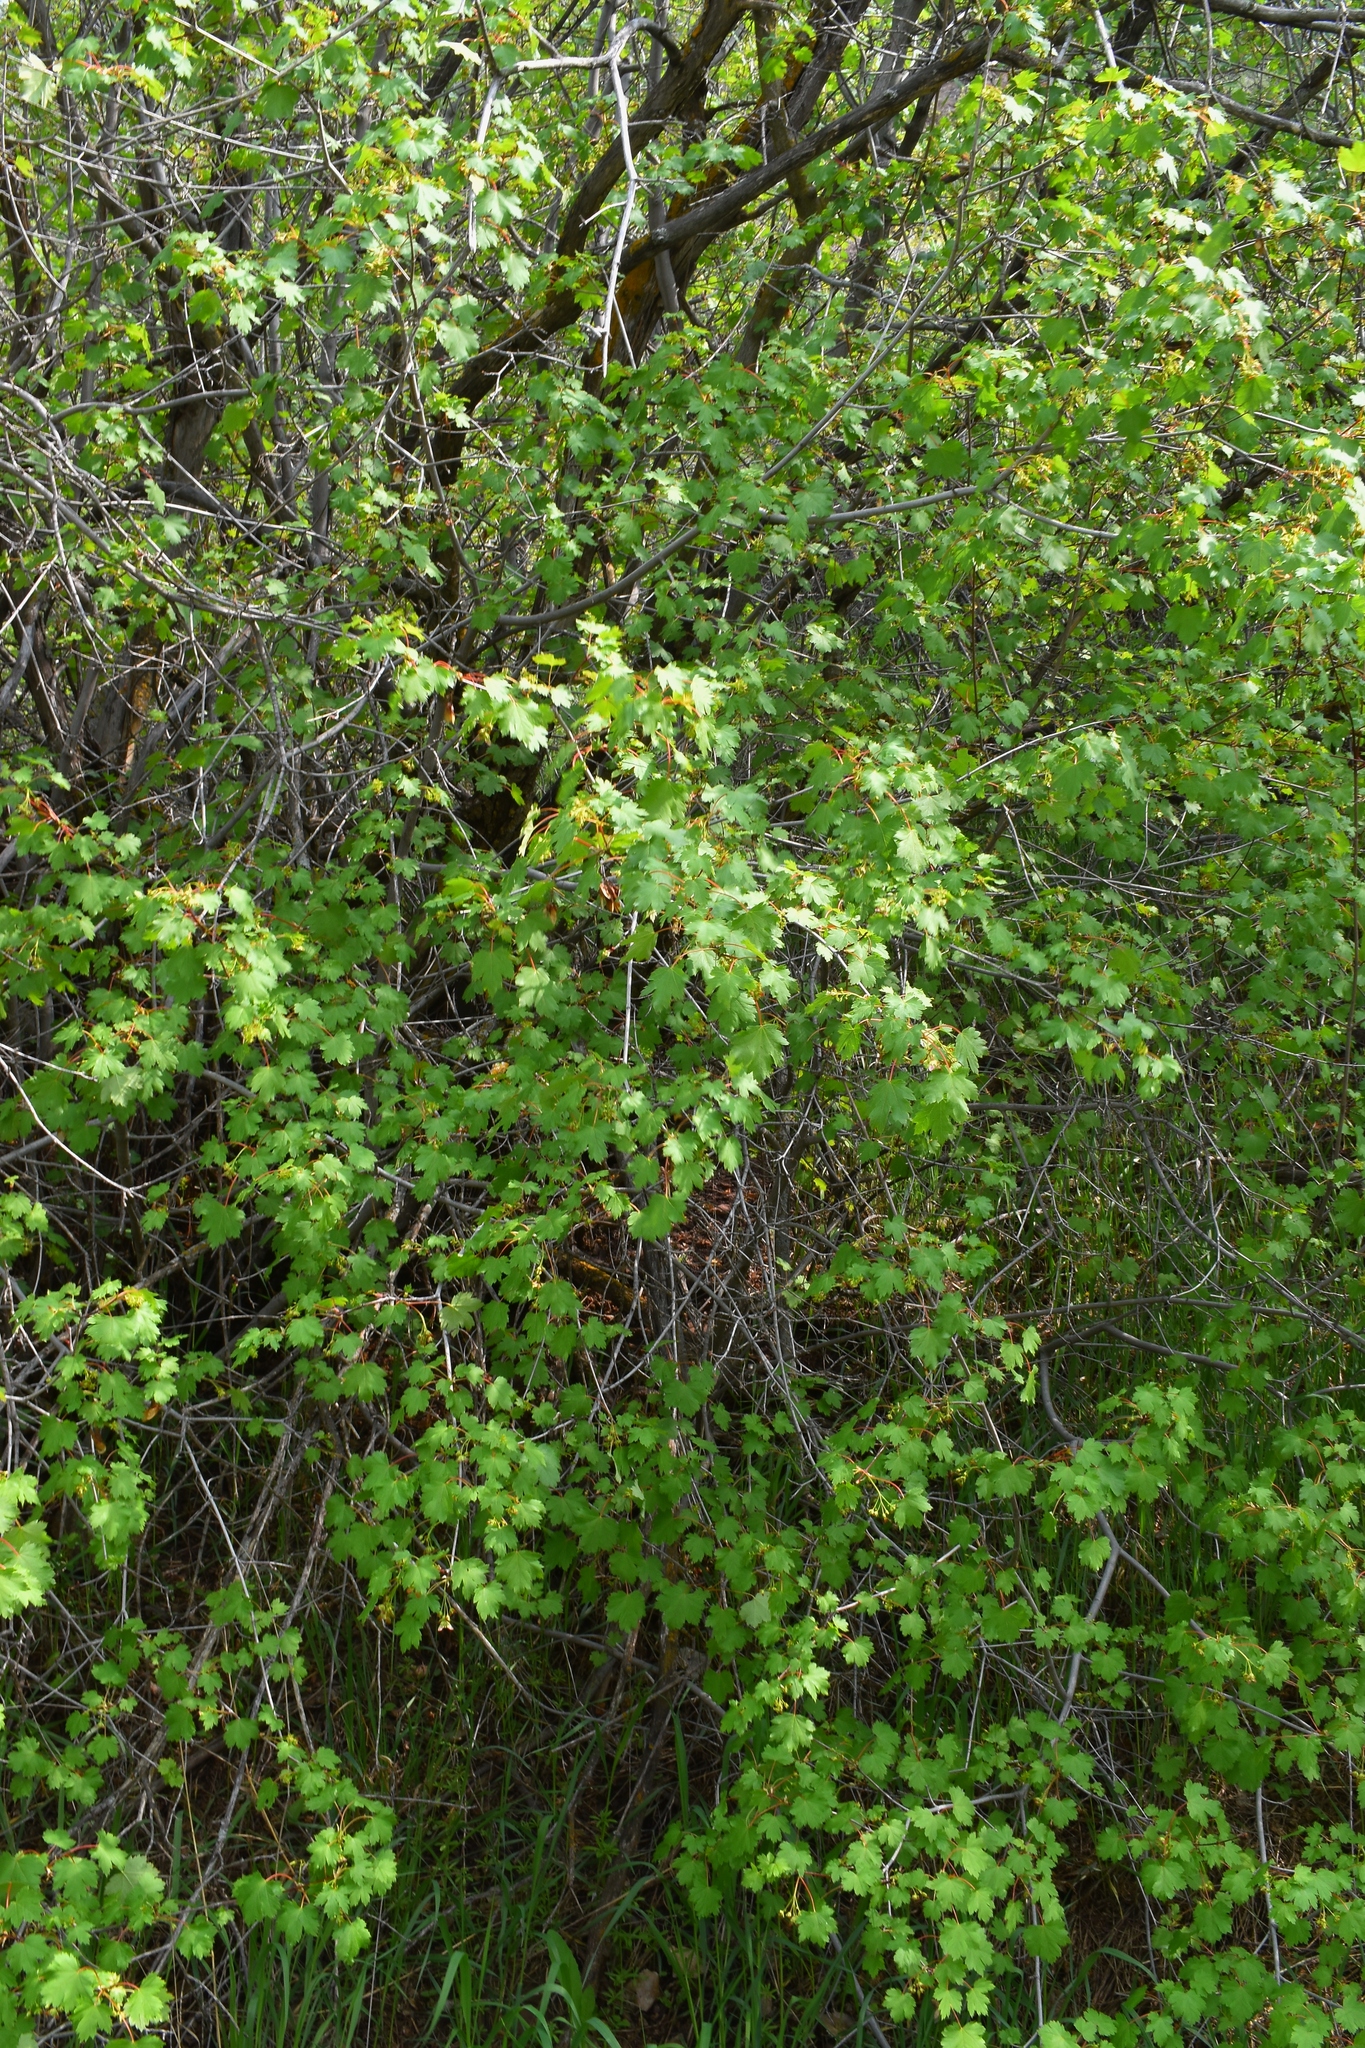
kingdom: Plantae
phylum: Tracheophyta
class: Magnoliopsida
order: Sapindales
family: Sapindaceae
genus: Acer
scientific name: Acer glabrum
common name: Rocky mountain maple
